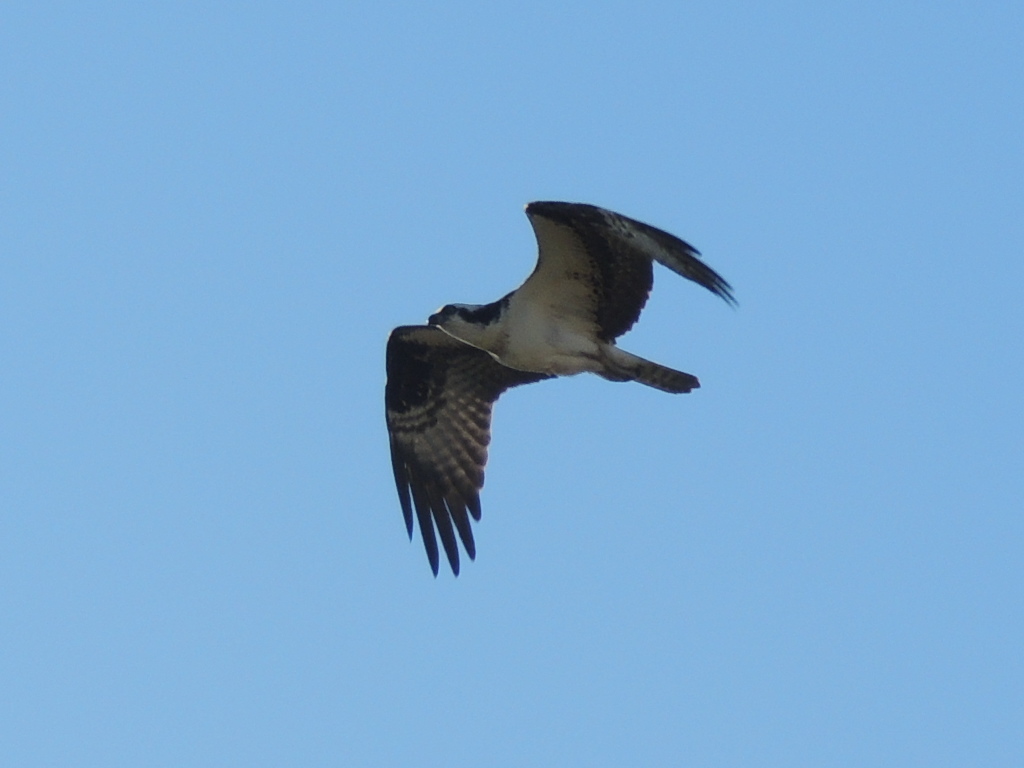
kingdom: Animalia
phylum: Chordata
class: Aves
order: Accipitriformes
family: Pandionidae
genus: Pandion
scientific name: Pandion haliaetus
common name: Osprey
